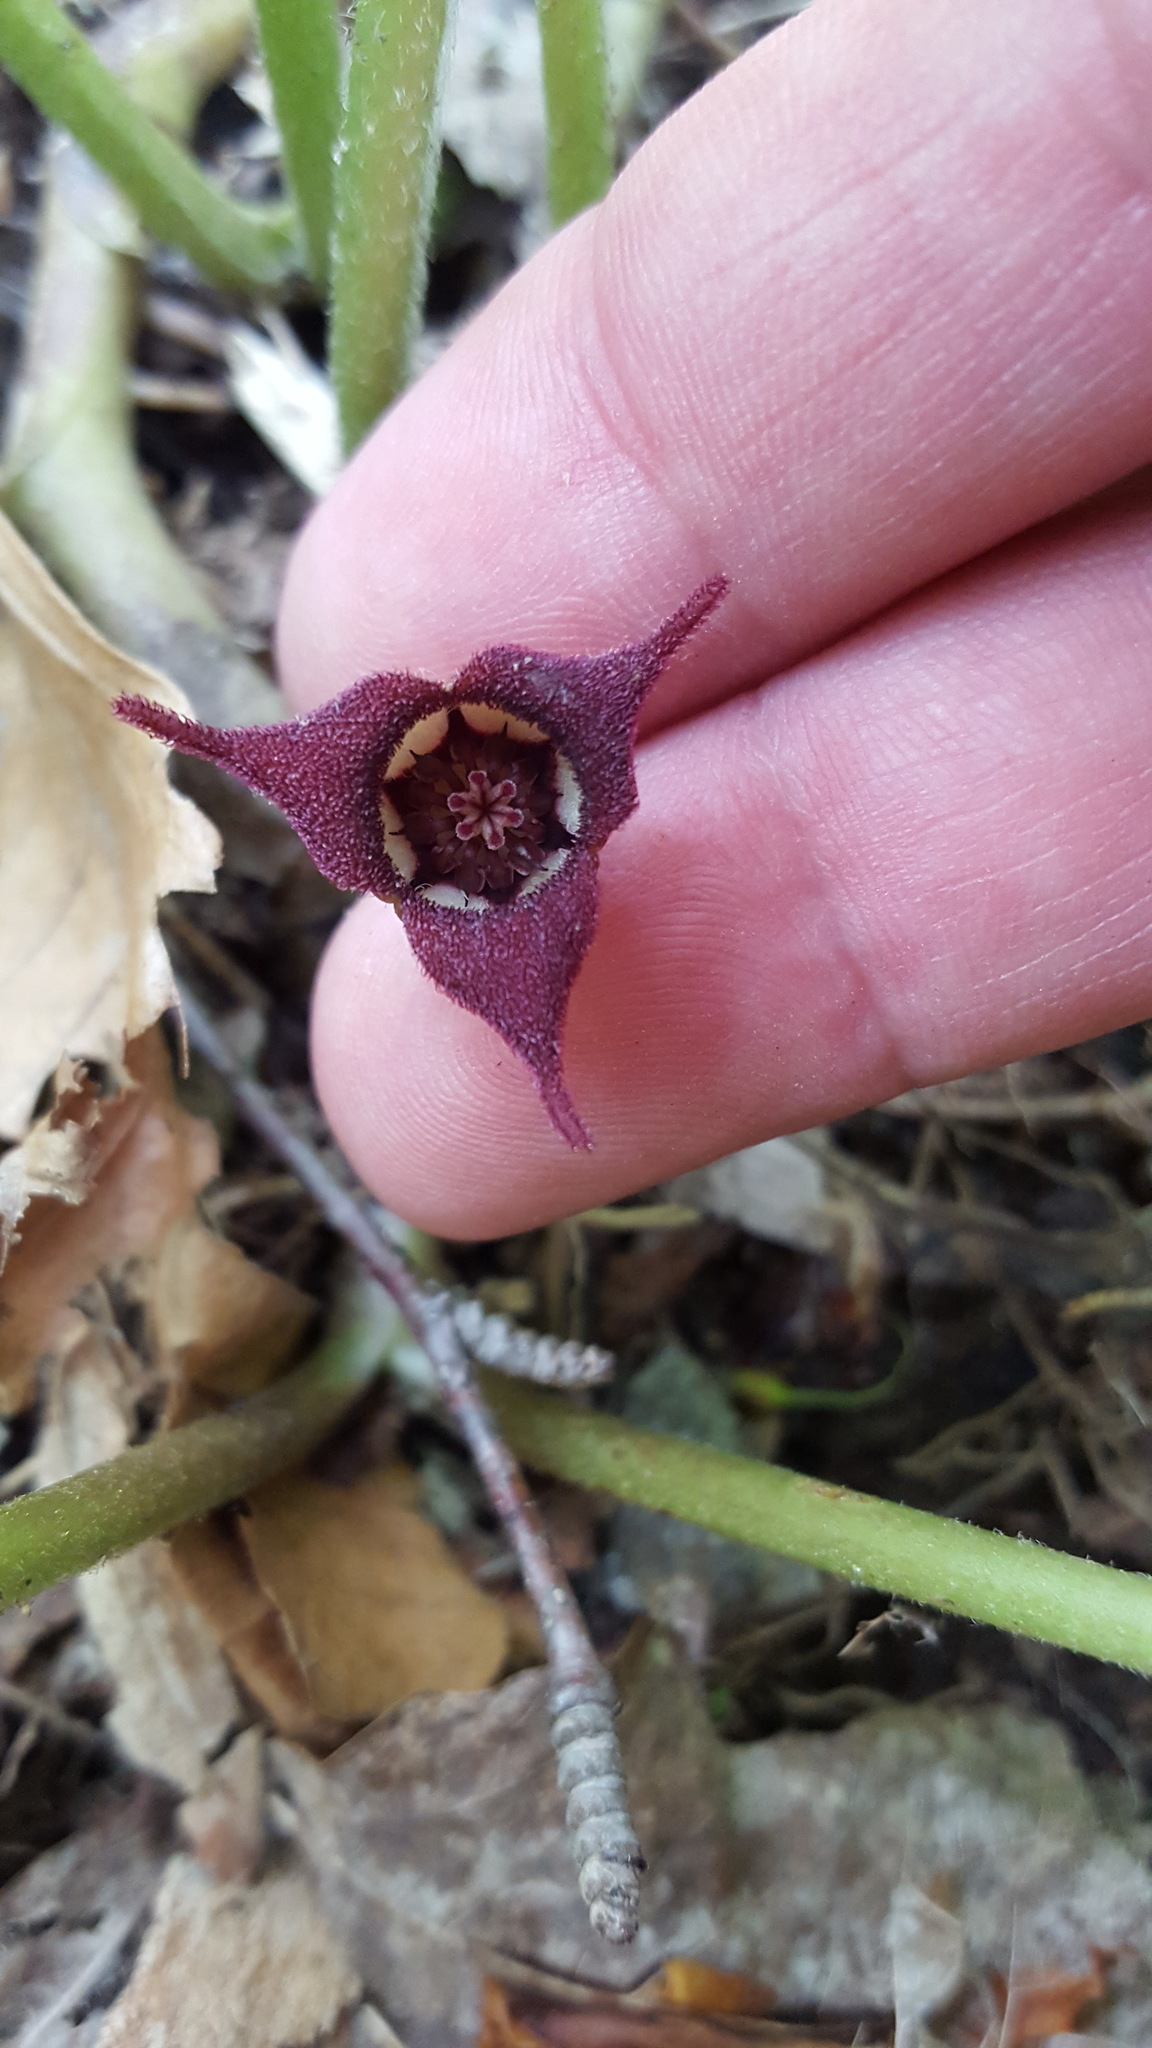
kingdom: Plantae
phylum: Tracheophyta
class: Magnoliopsida
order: Piperales
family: Aristolochiaceae
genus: Asarum
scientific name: Asarum canadense
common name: Wild ginger
